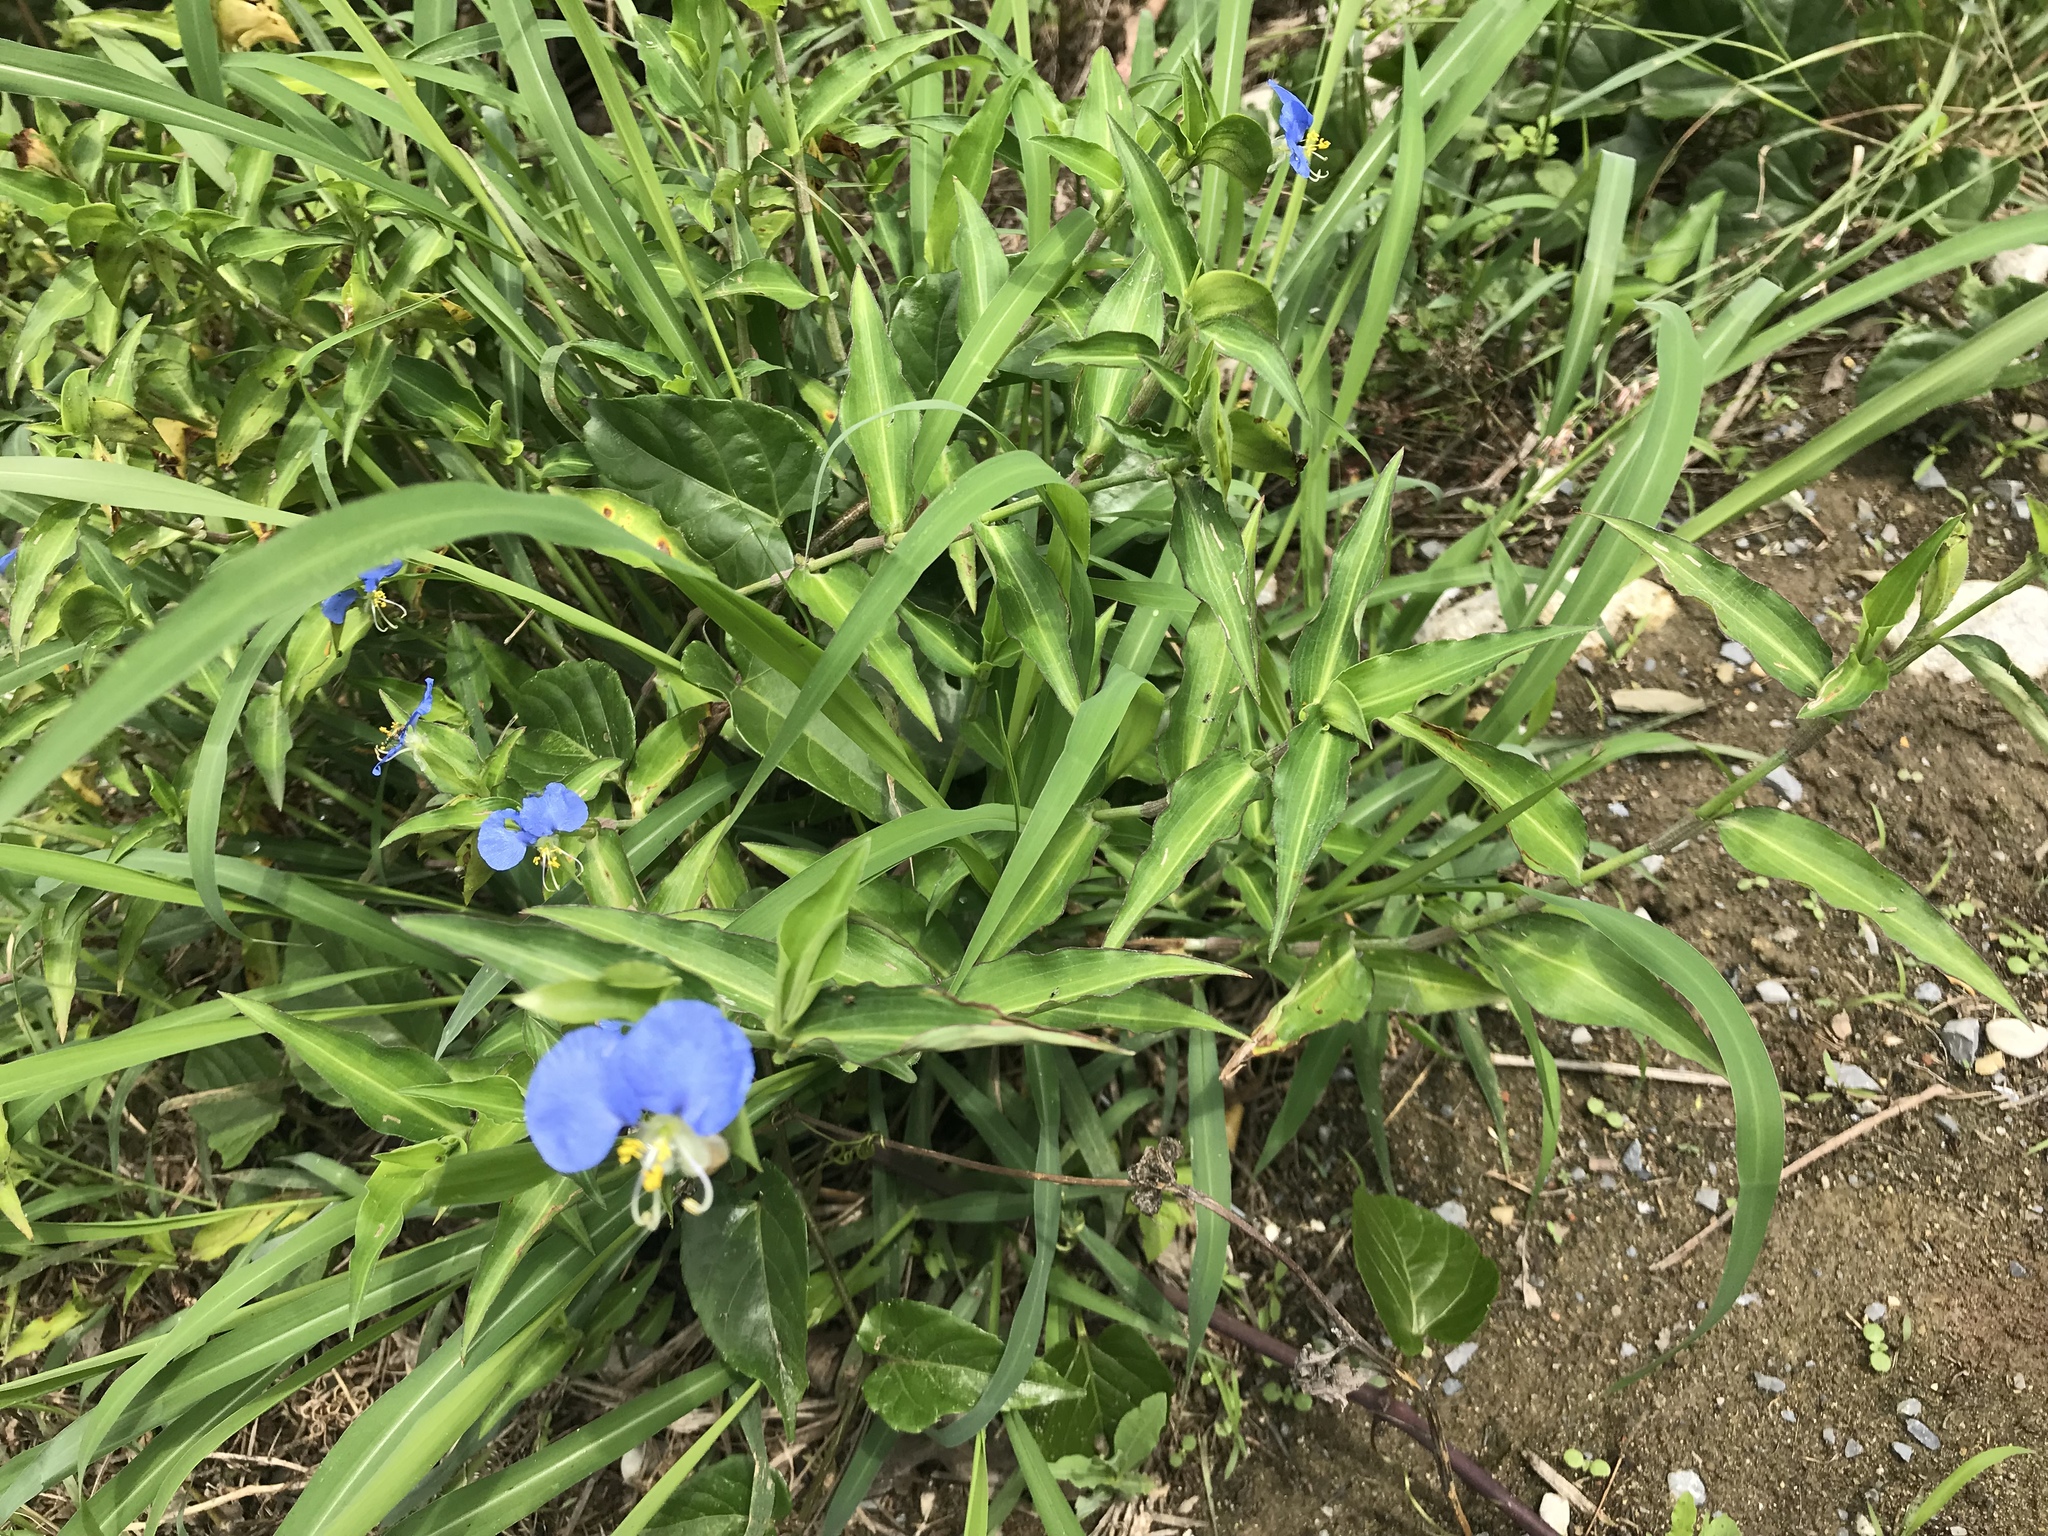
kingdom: Plantae
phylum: Tracheophyta
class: Liliopsida
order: Commelinales
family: Commelinaceae
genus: Commelina
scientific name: Commelina erecta
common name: Blousel blommetjie
